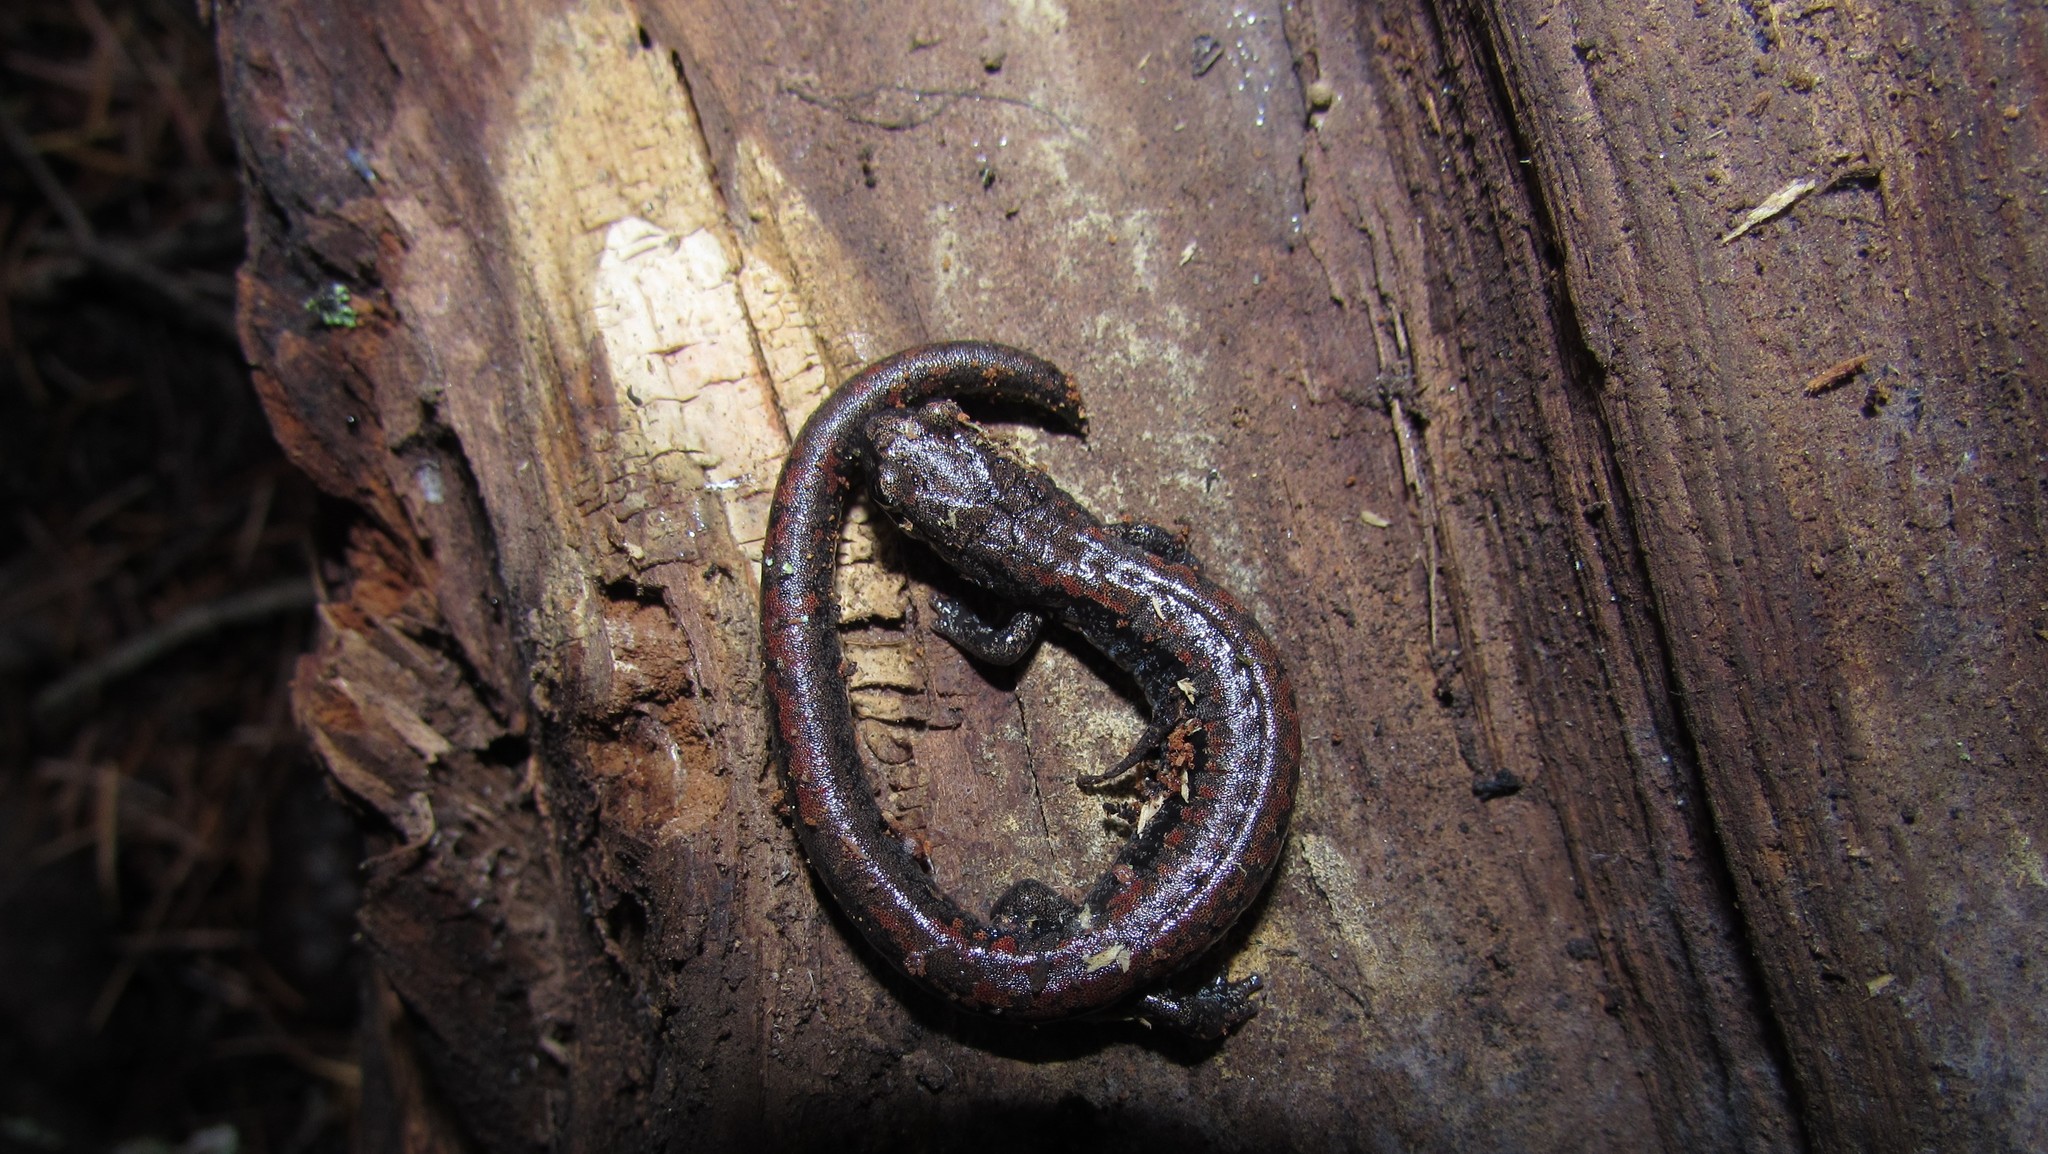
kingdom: Animalia
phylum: Chordata
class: Amphibia
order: Caudata
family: Plethodontidae
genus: Batrachoseps
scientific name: Batrachoseps wrighti
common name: Oregon slender salamander
